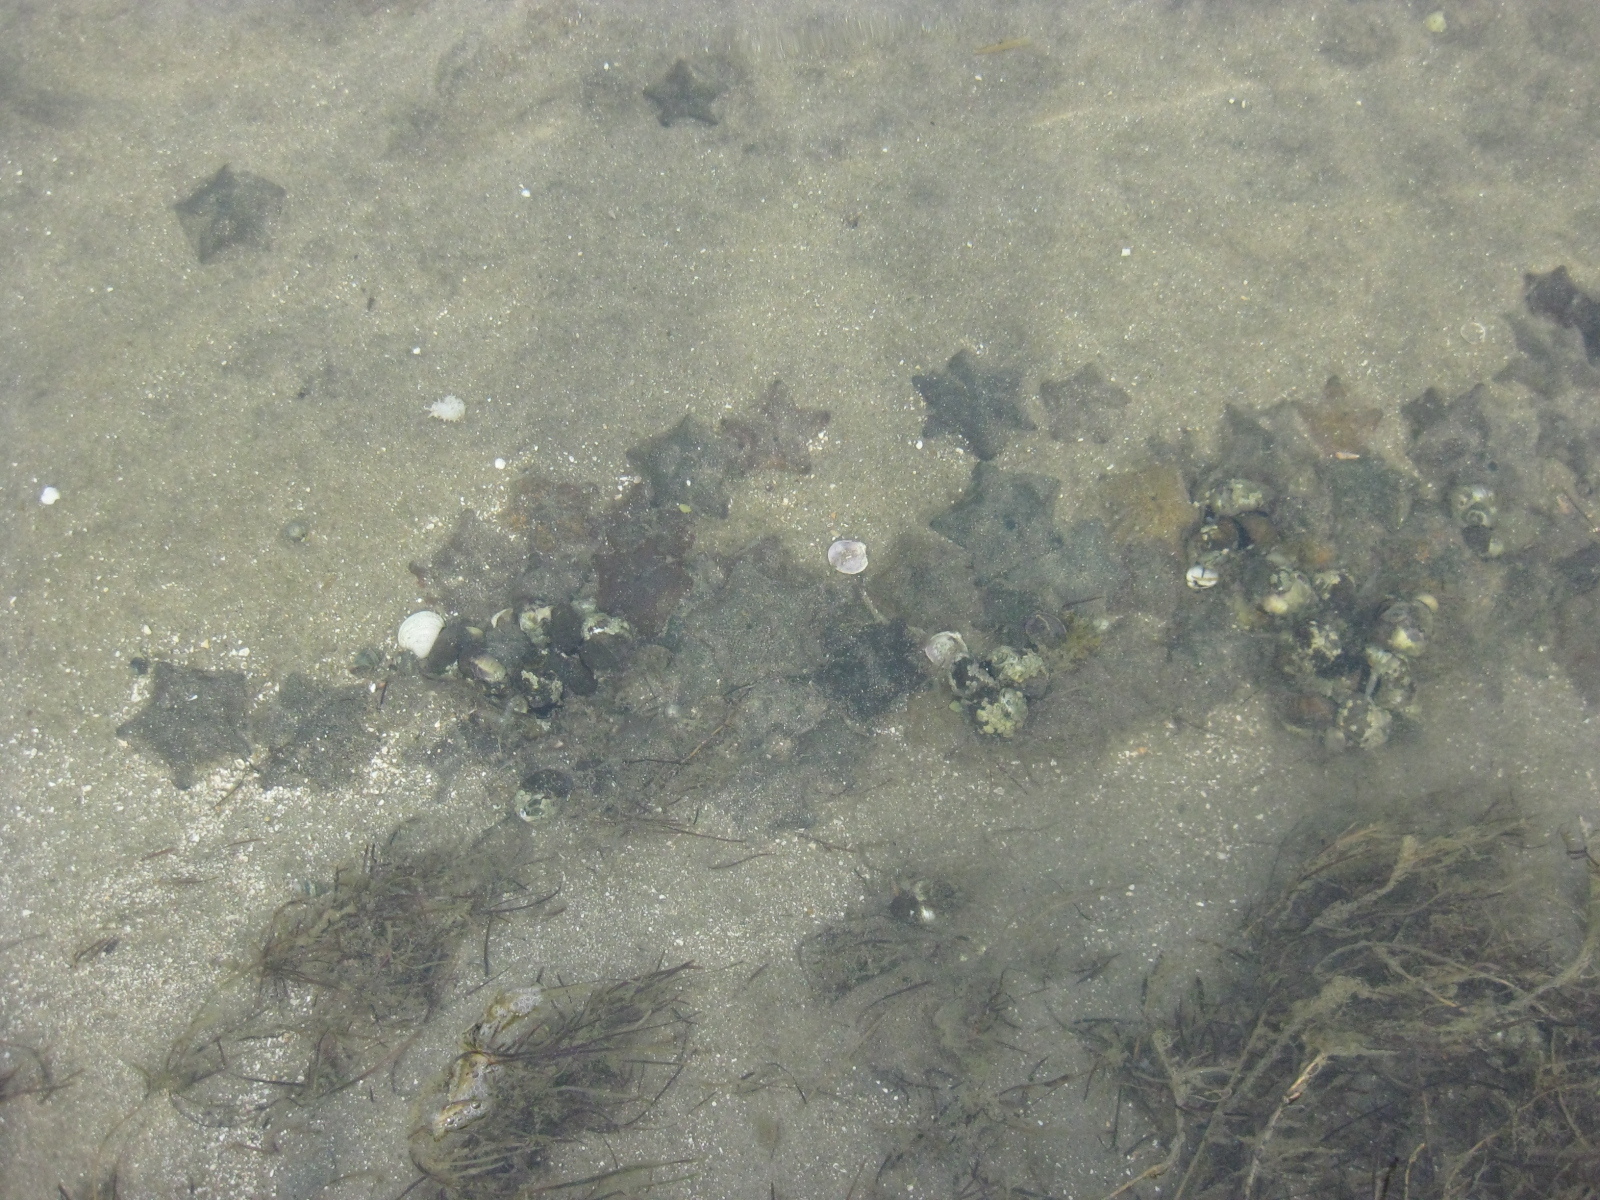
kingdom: Animalia
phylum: Echinodermata
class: Asteroidea
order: Valvatida
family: Asterinidae
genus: Patiriella
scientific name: Patiriella regularis
